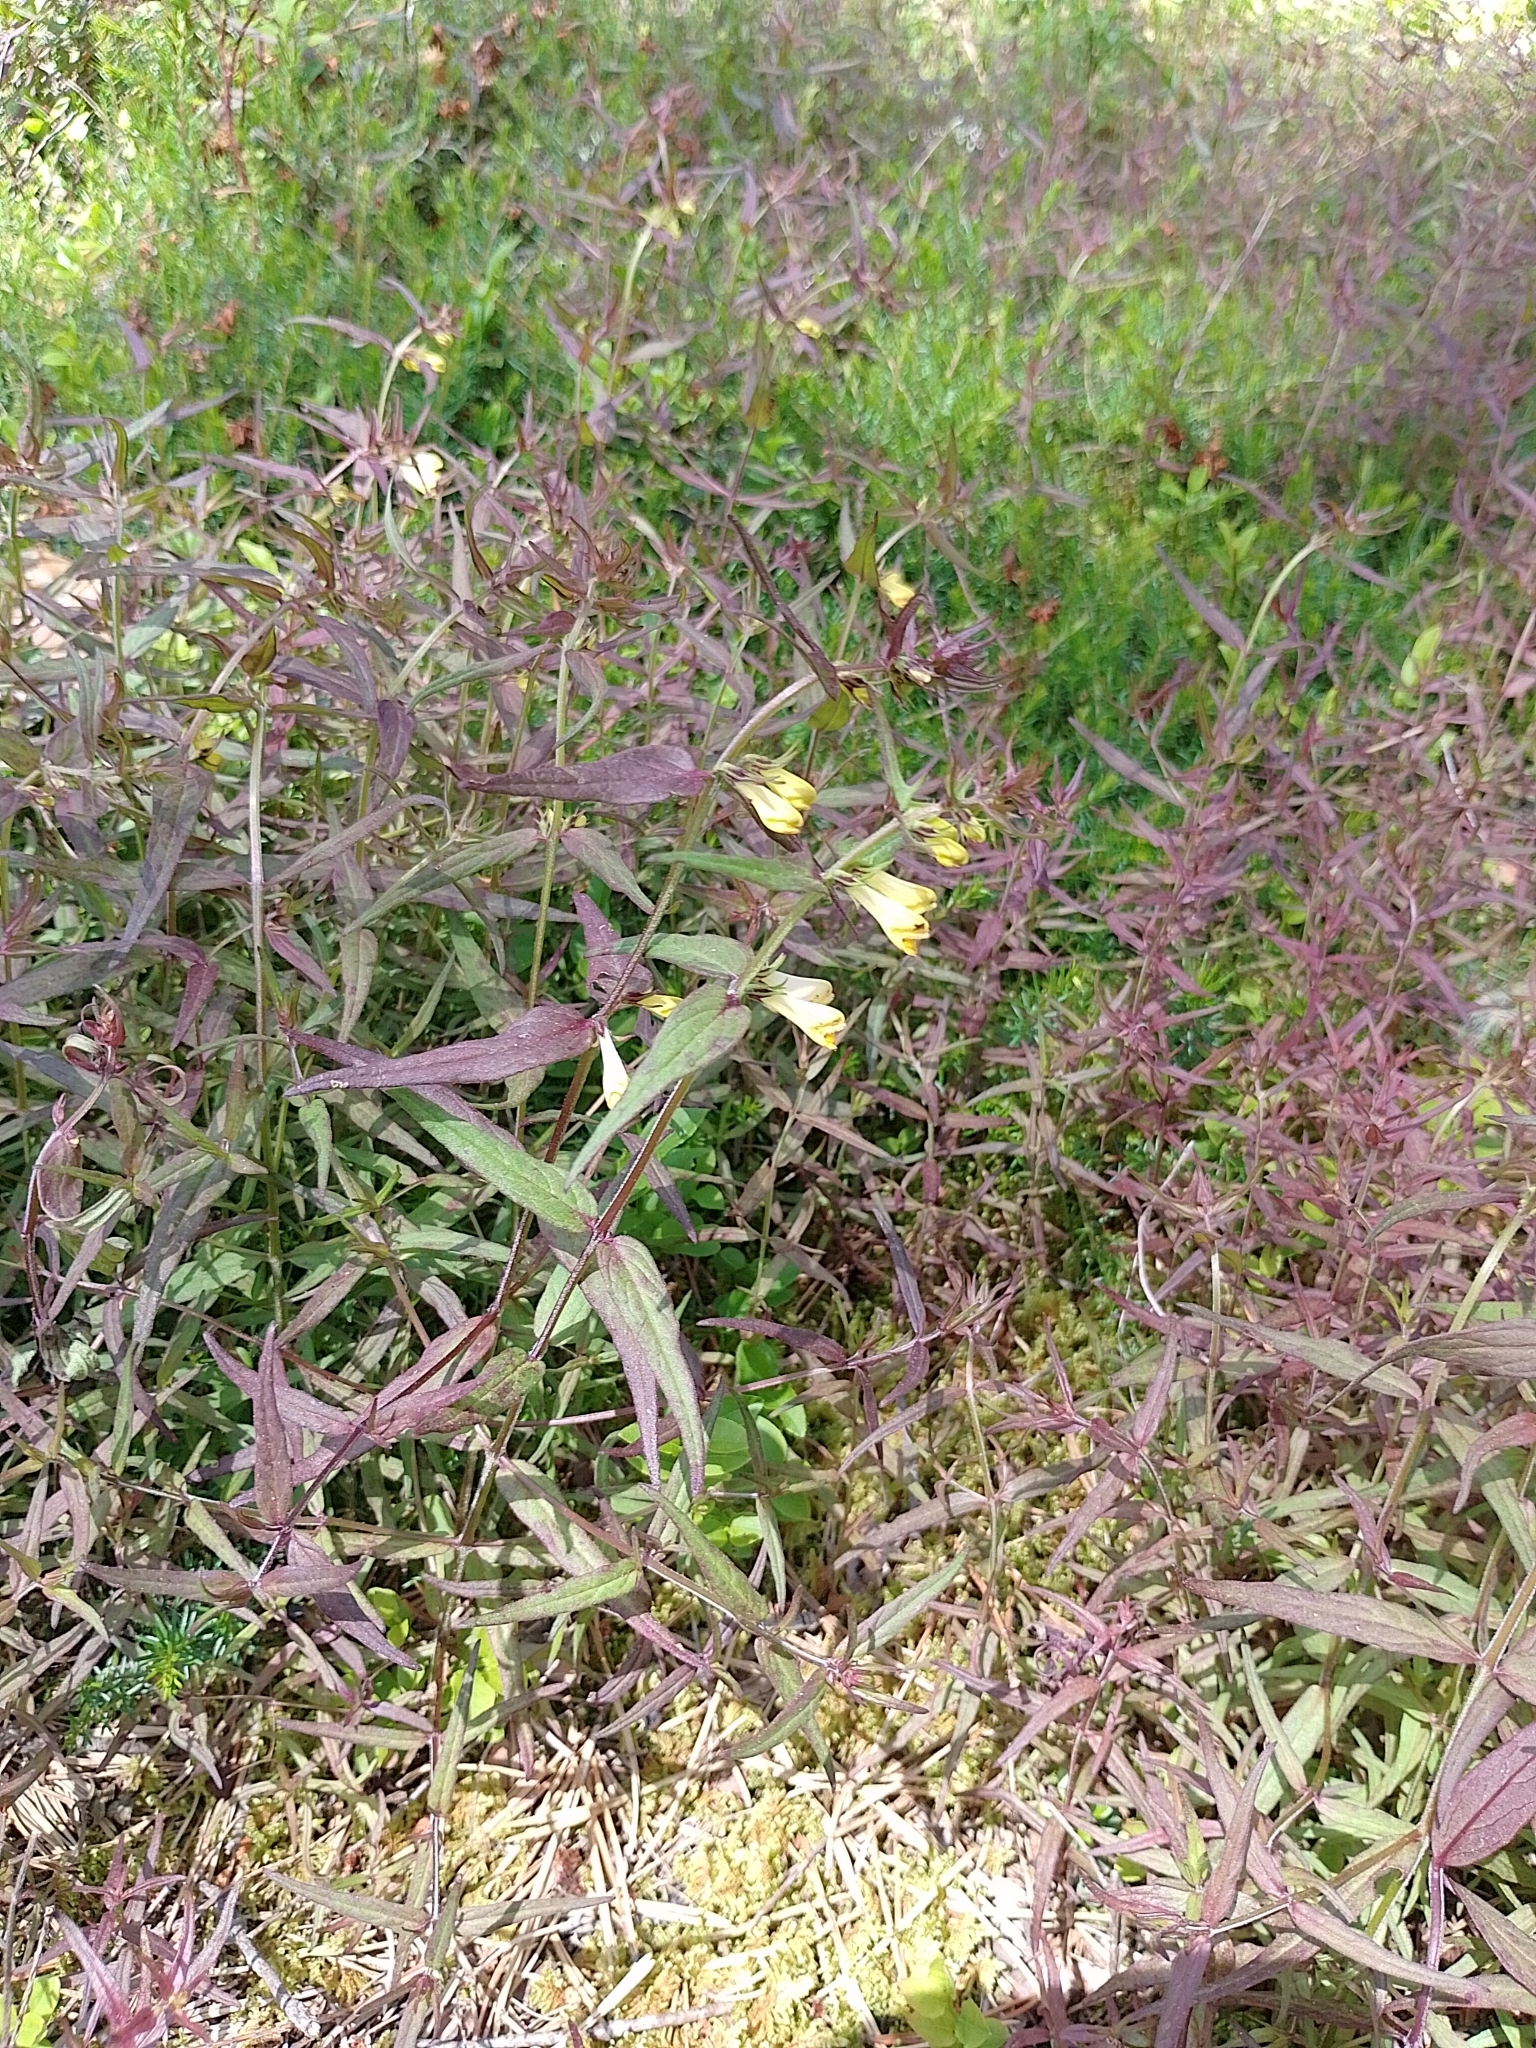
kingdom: Plantae
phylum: Tracheophyta
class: Magnoliopsida
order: Lamiales
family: Orobanchaceae
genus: Melampyrum
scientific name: Melampyrum pratense
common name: Common cow-wheat
